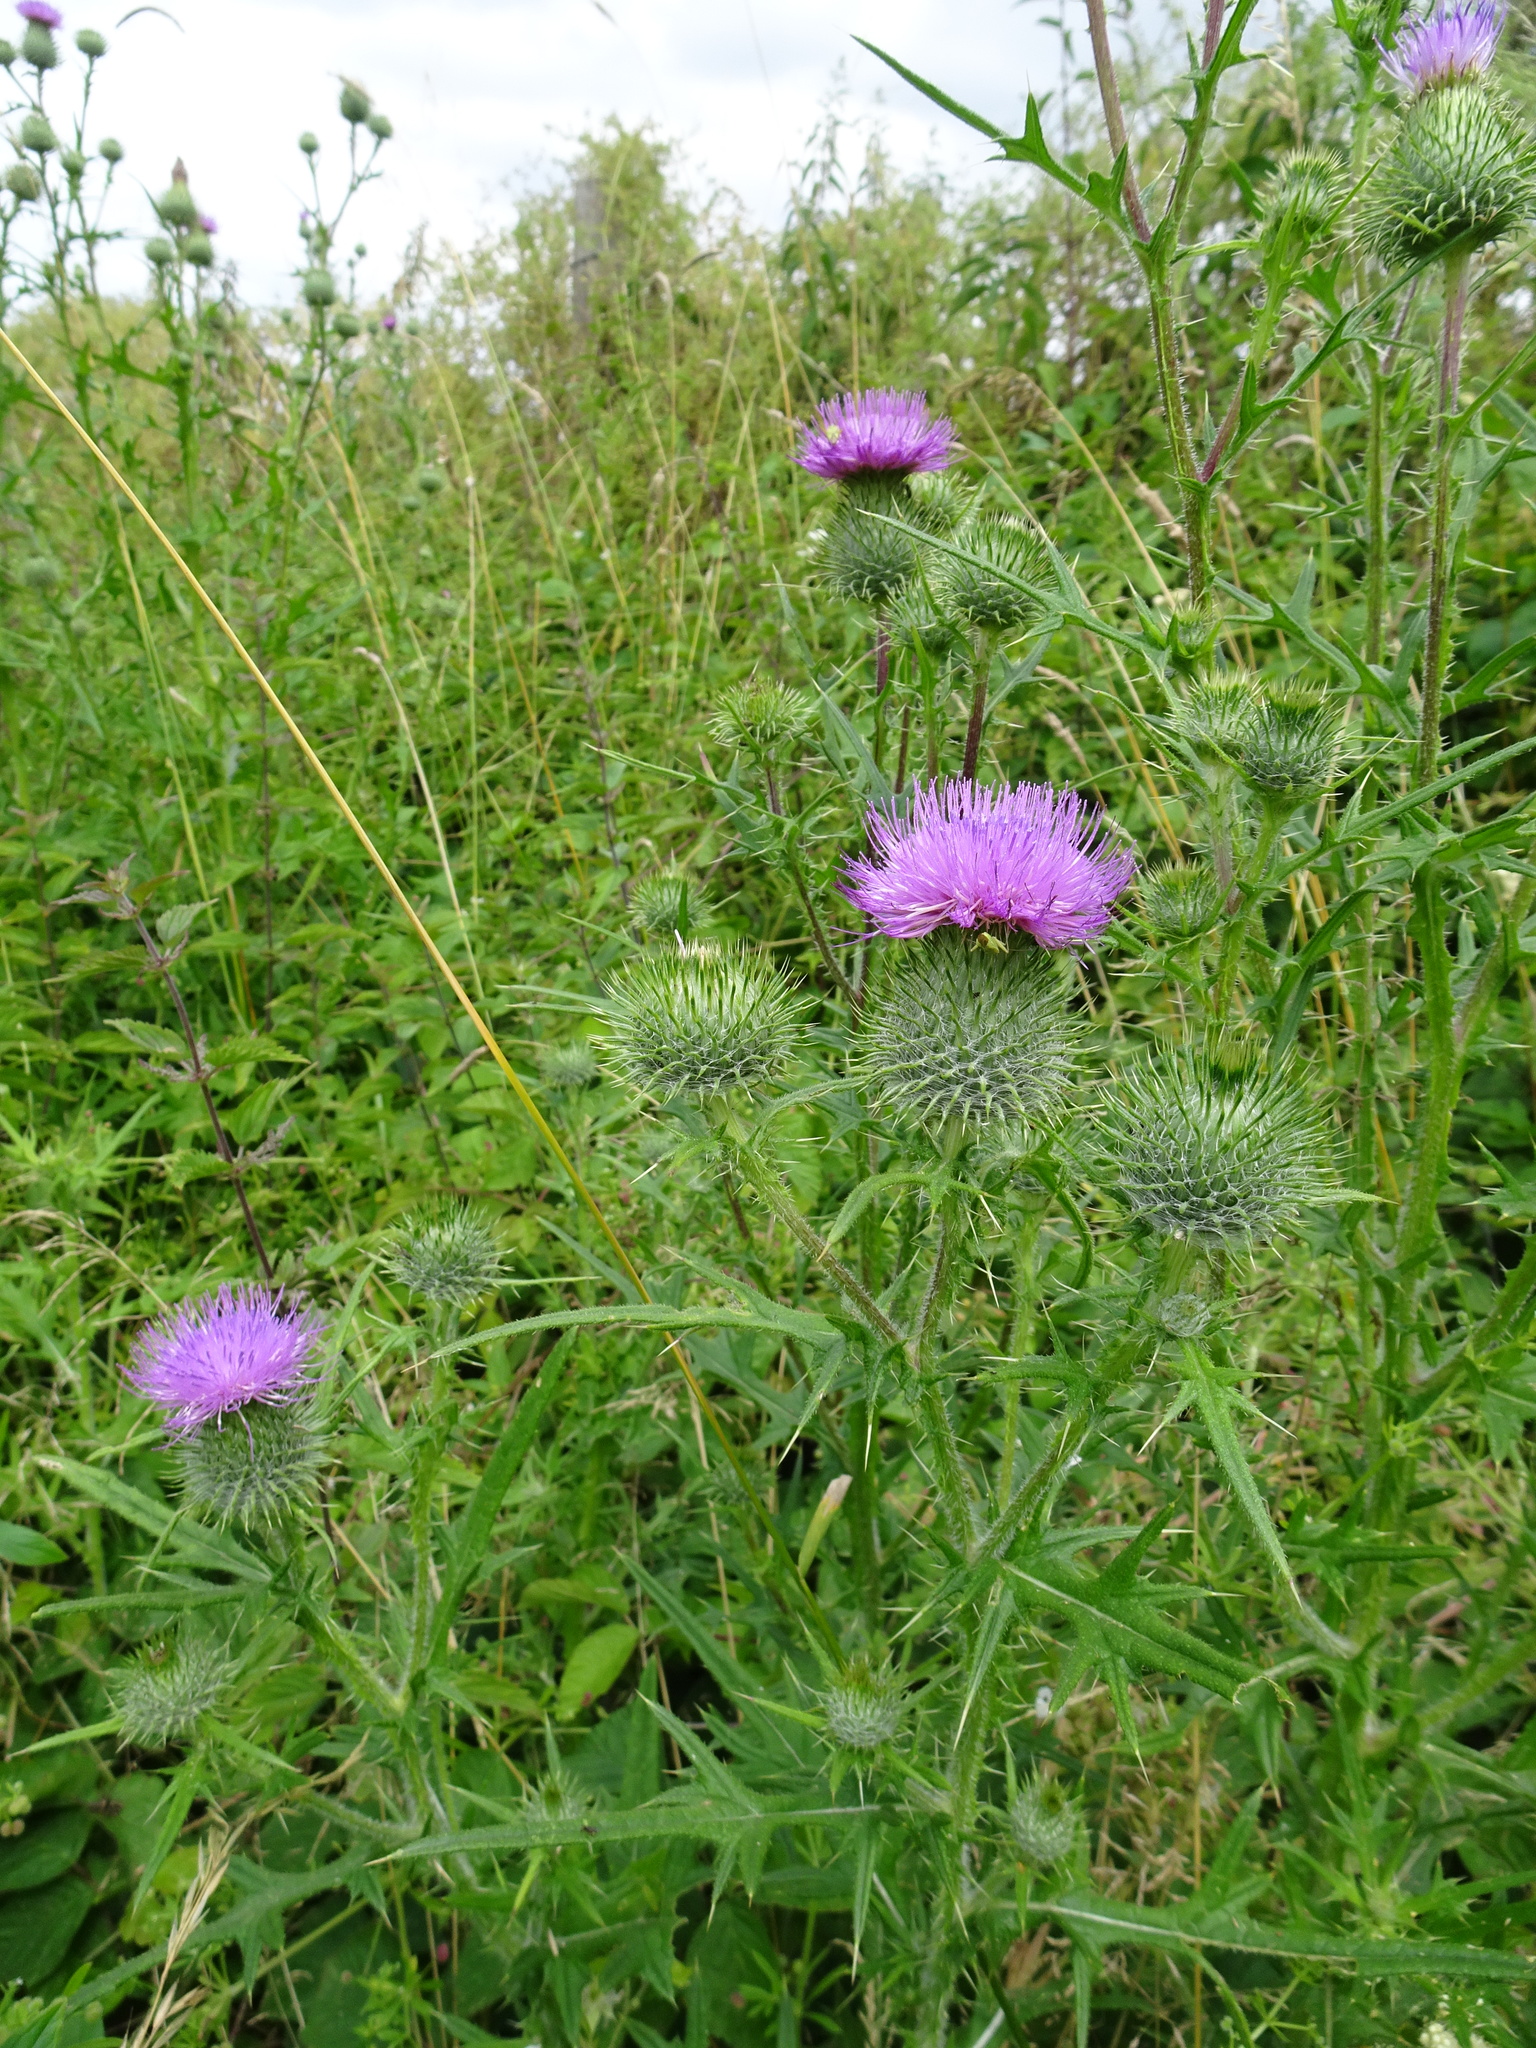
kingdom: Plantae
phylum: Tracheophyta
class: Magnoliopsida
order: Asterales
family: Asteraceae
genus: Cirsium
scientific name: Cirsium vulgare
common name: Bull thistle
